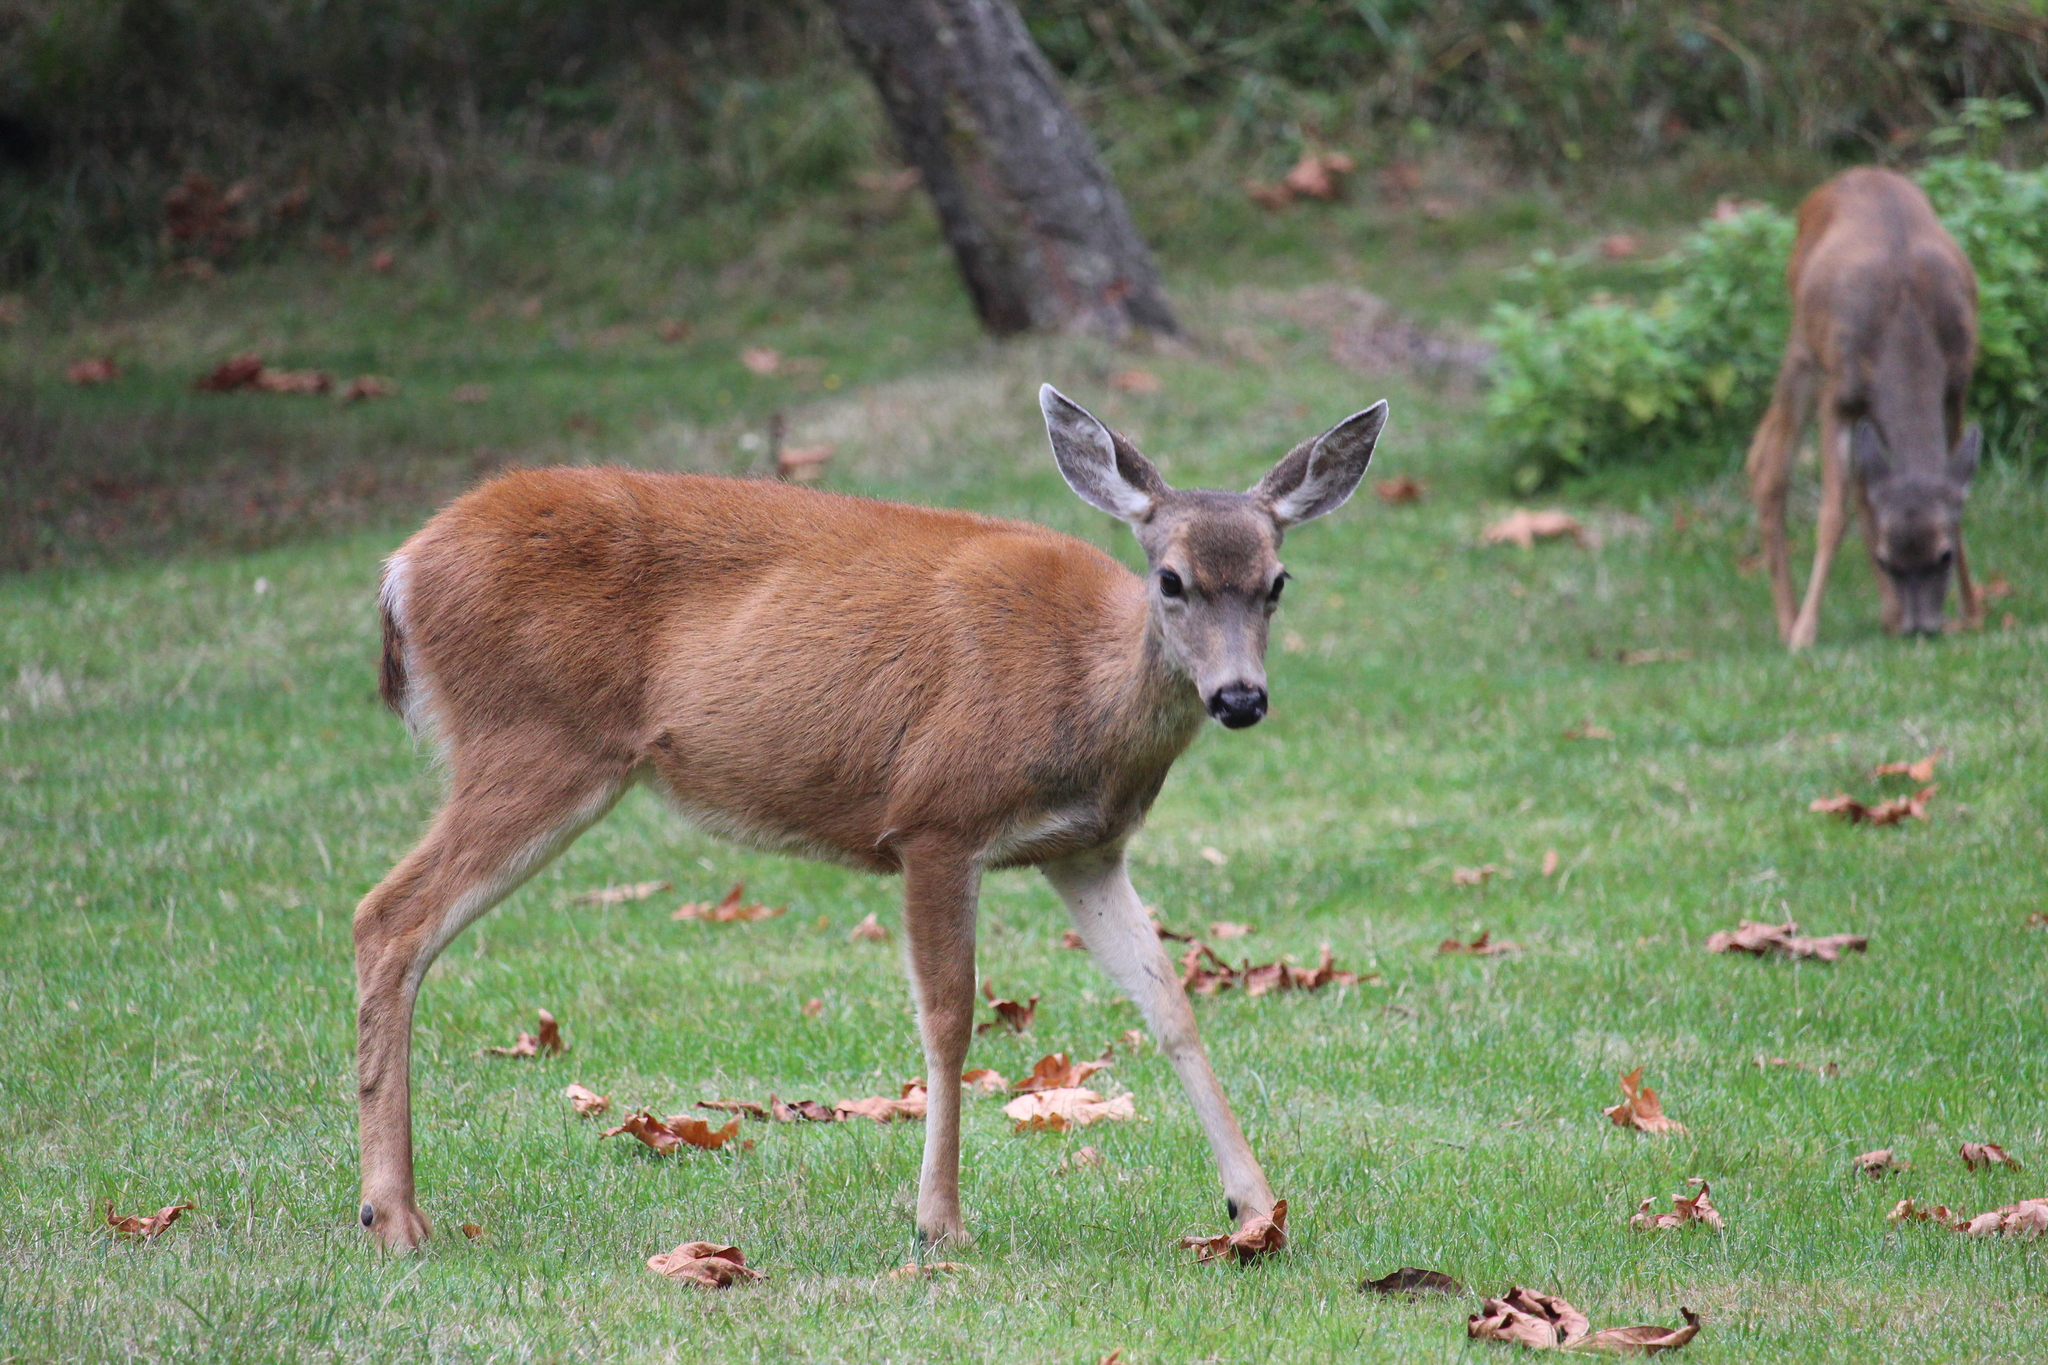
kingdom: Animalia
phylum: Chordata
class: Mammalia
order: Artiodactyla
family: Cervidae
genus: Odocoileus
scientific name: Odocoileus hemionus
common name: Mule deer
